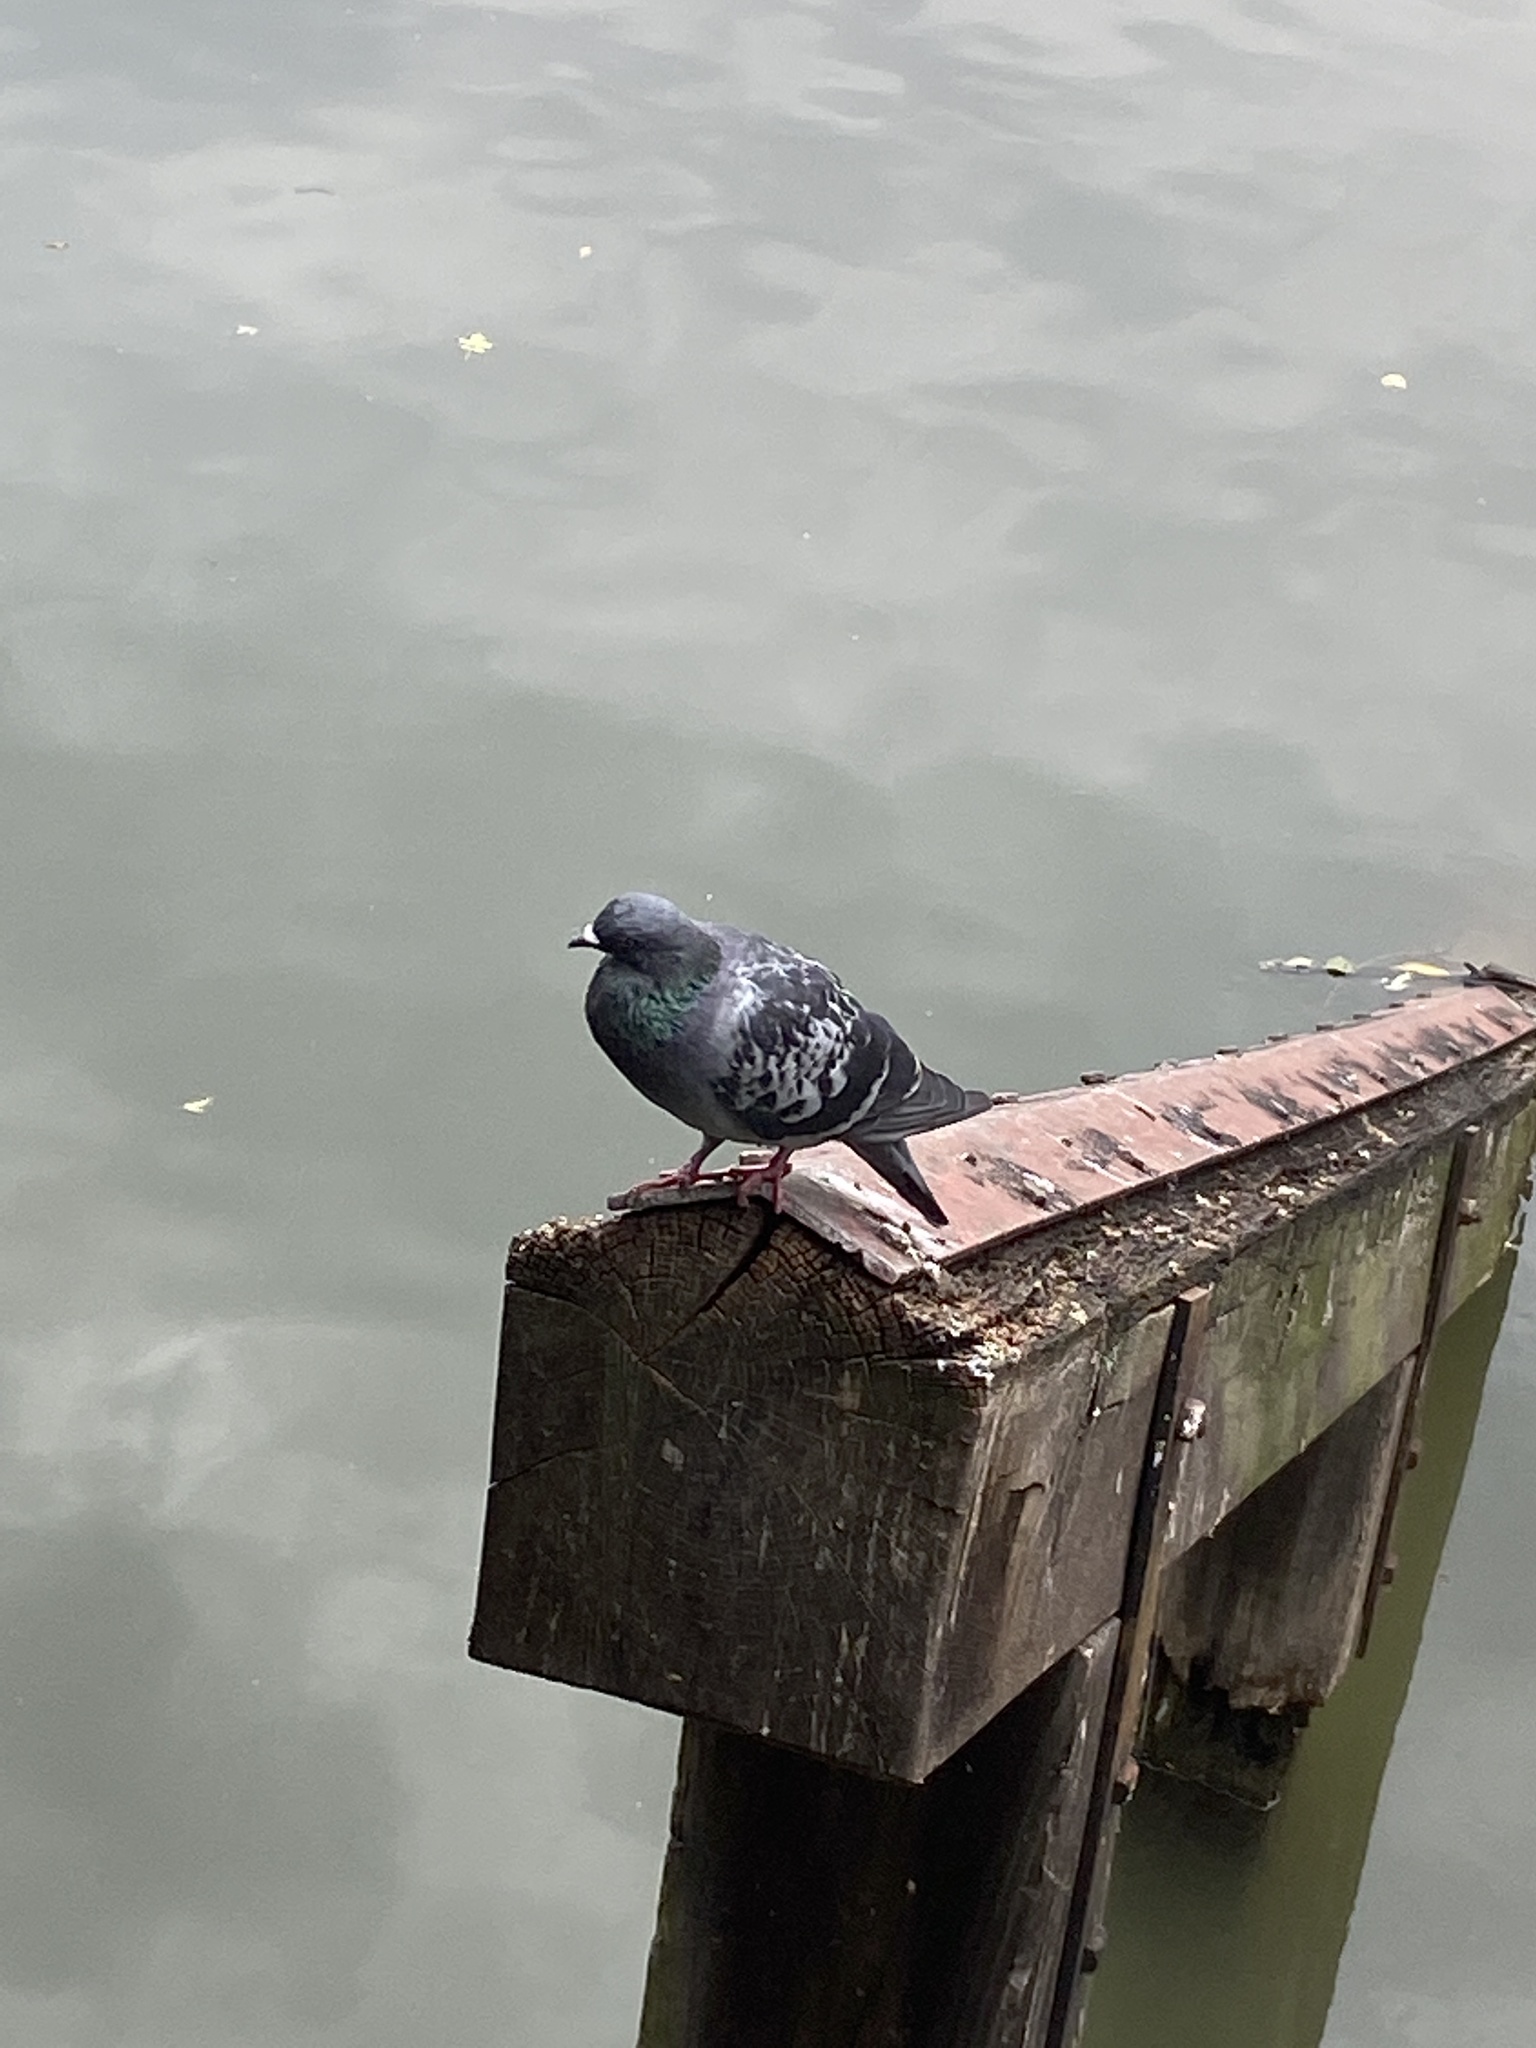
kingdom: Animalia
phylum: Chordata
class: Aves
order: Columbiformes
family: Columbidae
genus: Columba
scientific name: Columba livia
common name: Rock pigeon
